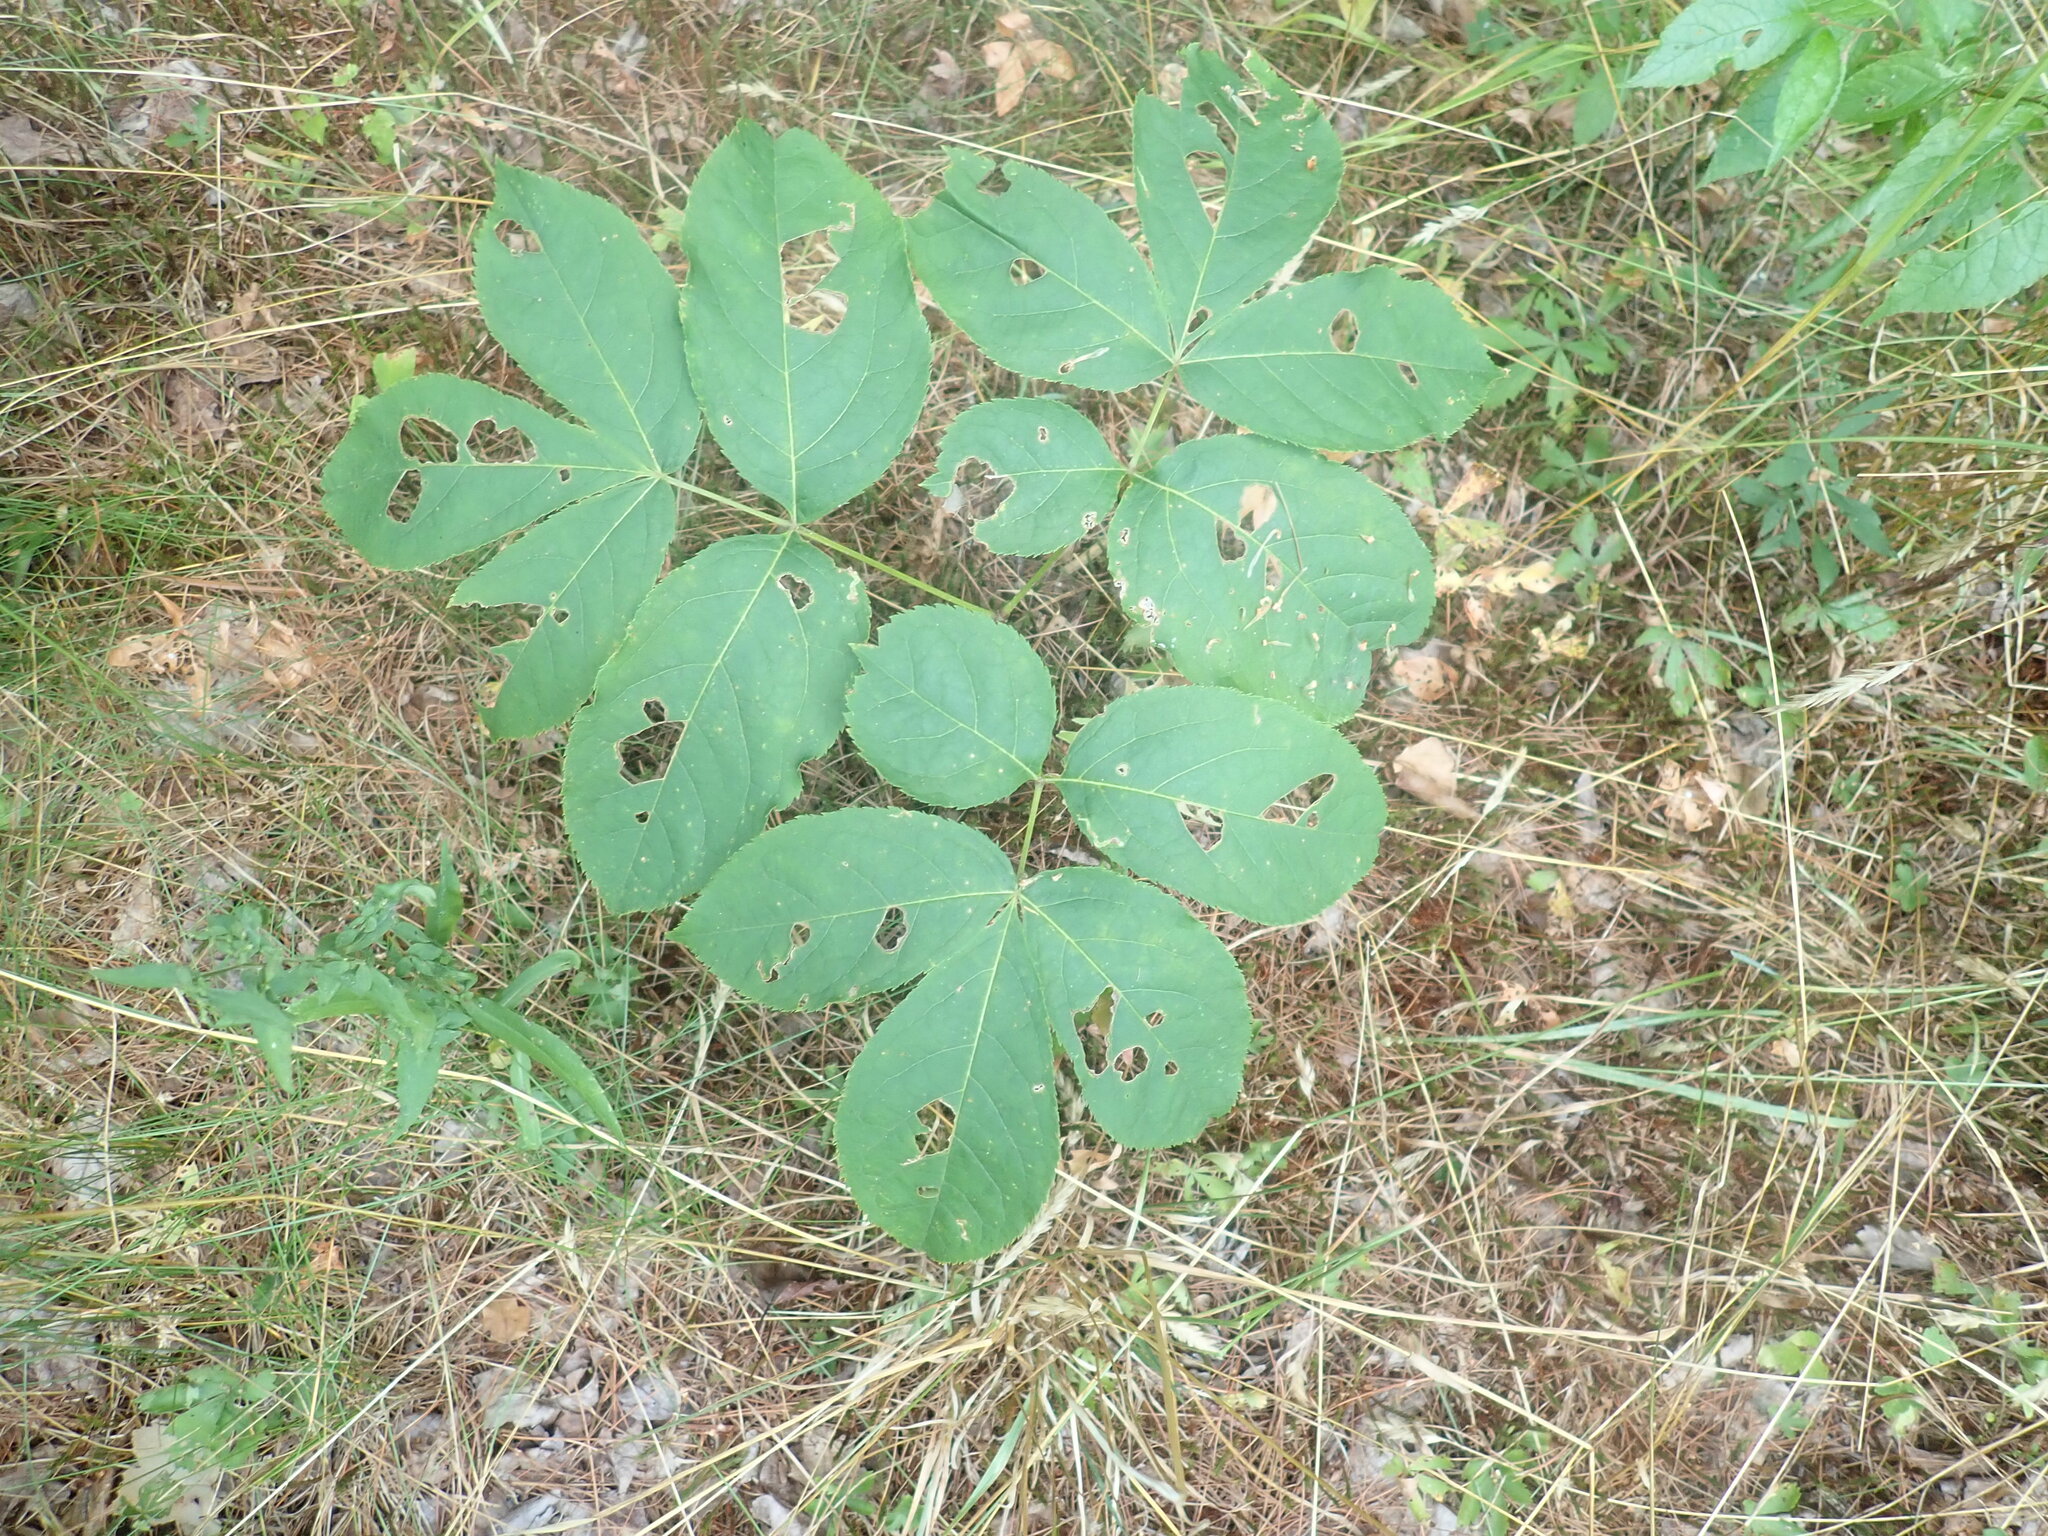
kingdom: Plantae
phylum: Tracheophyta
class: Magnoliopsida
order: Apiales
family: Araliaceae
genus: Aralia
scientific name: Aralia nudicaulis
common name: Wild sarsaparilla
